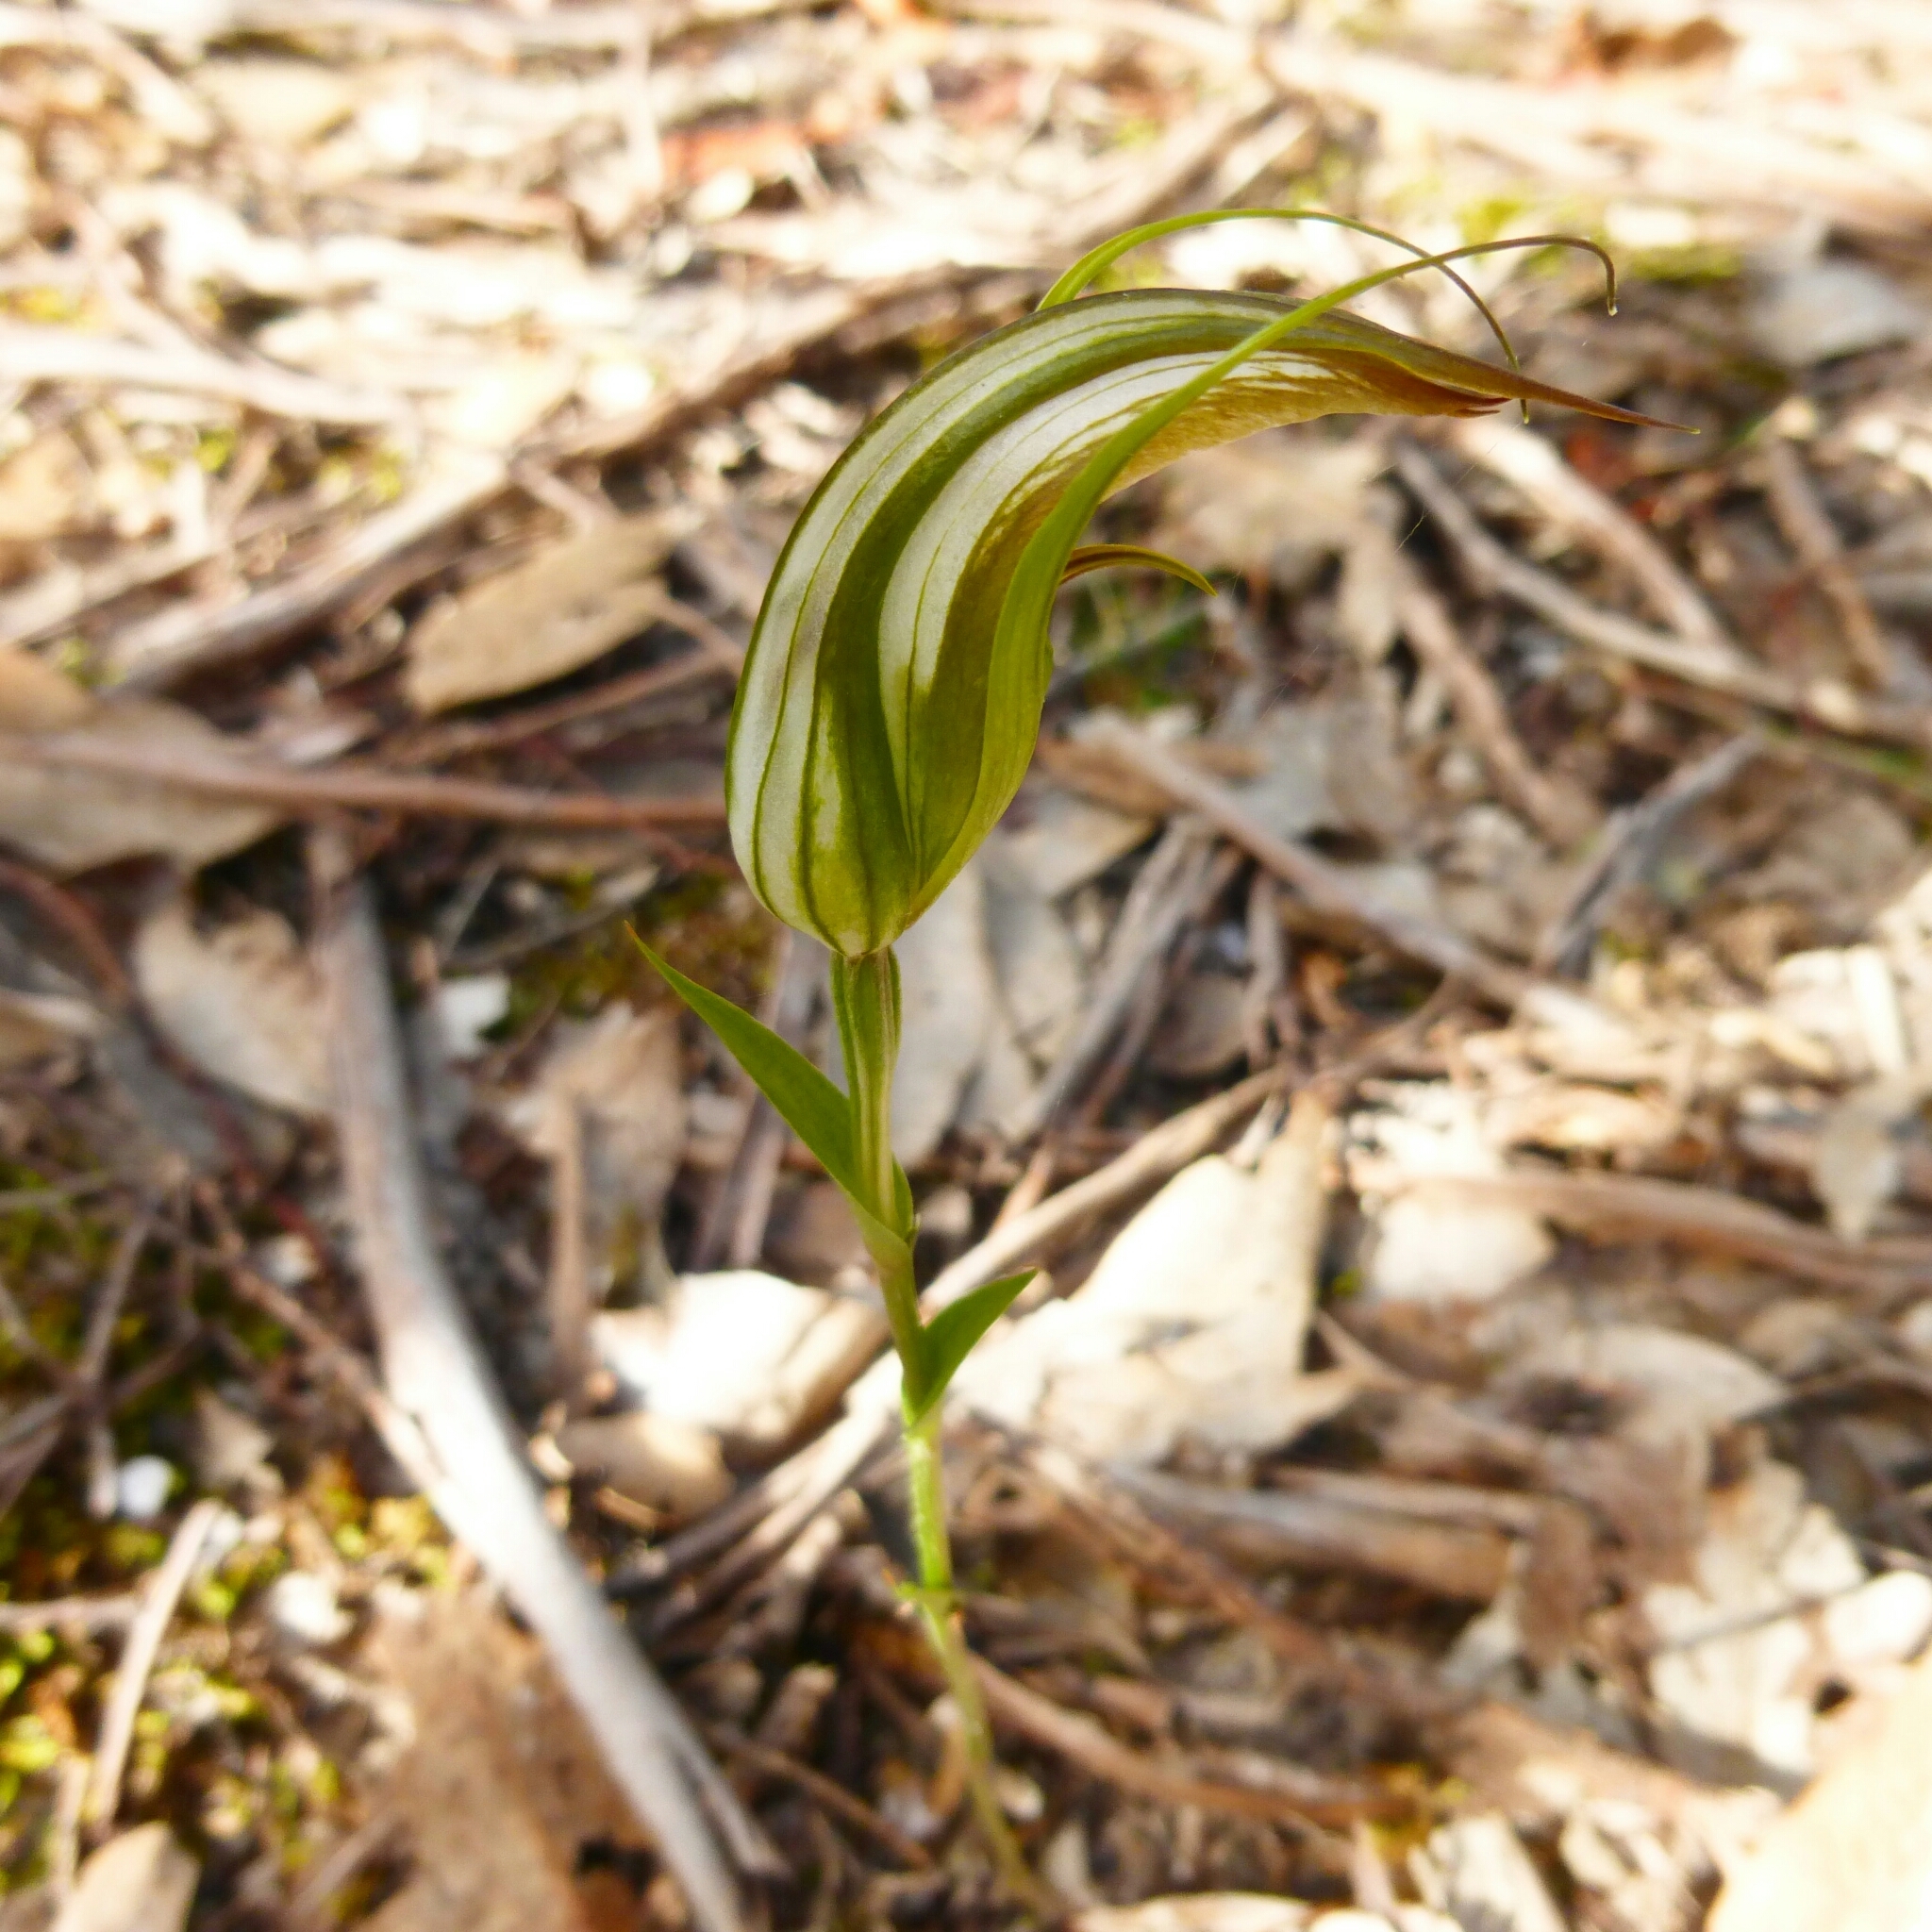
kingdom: Plantae
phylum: Tracheophyta
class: Liliopsida
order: Asparagales
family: Orchidaceae
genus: Pterostylis
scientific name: Pterostylis ampliata
